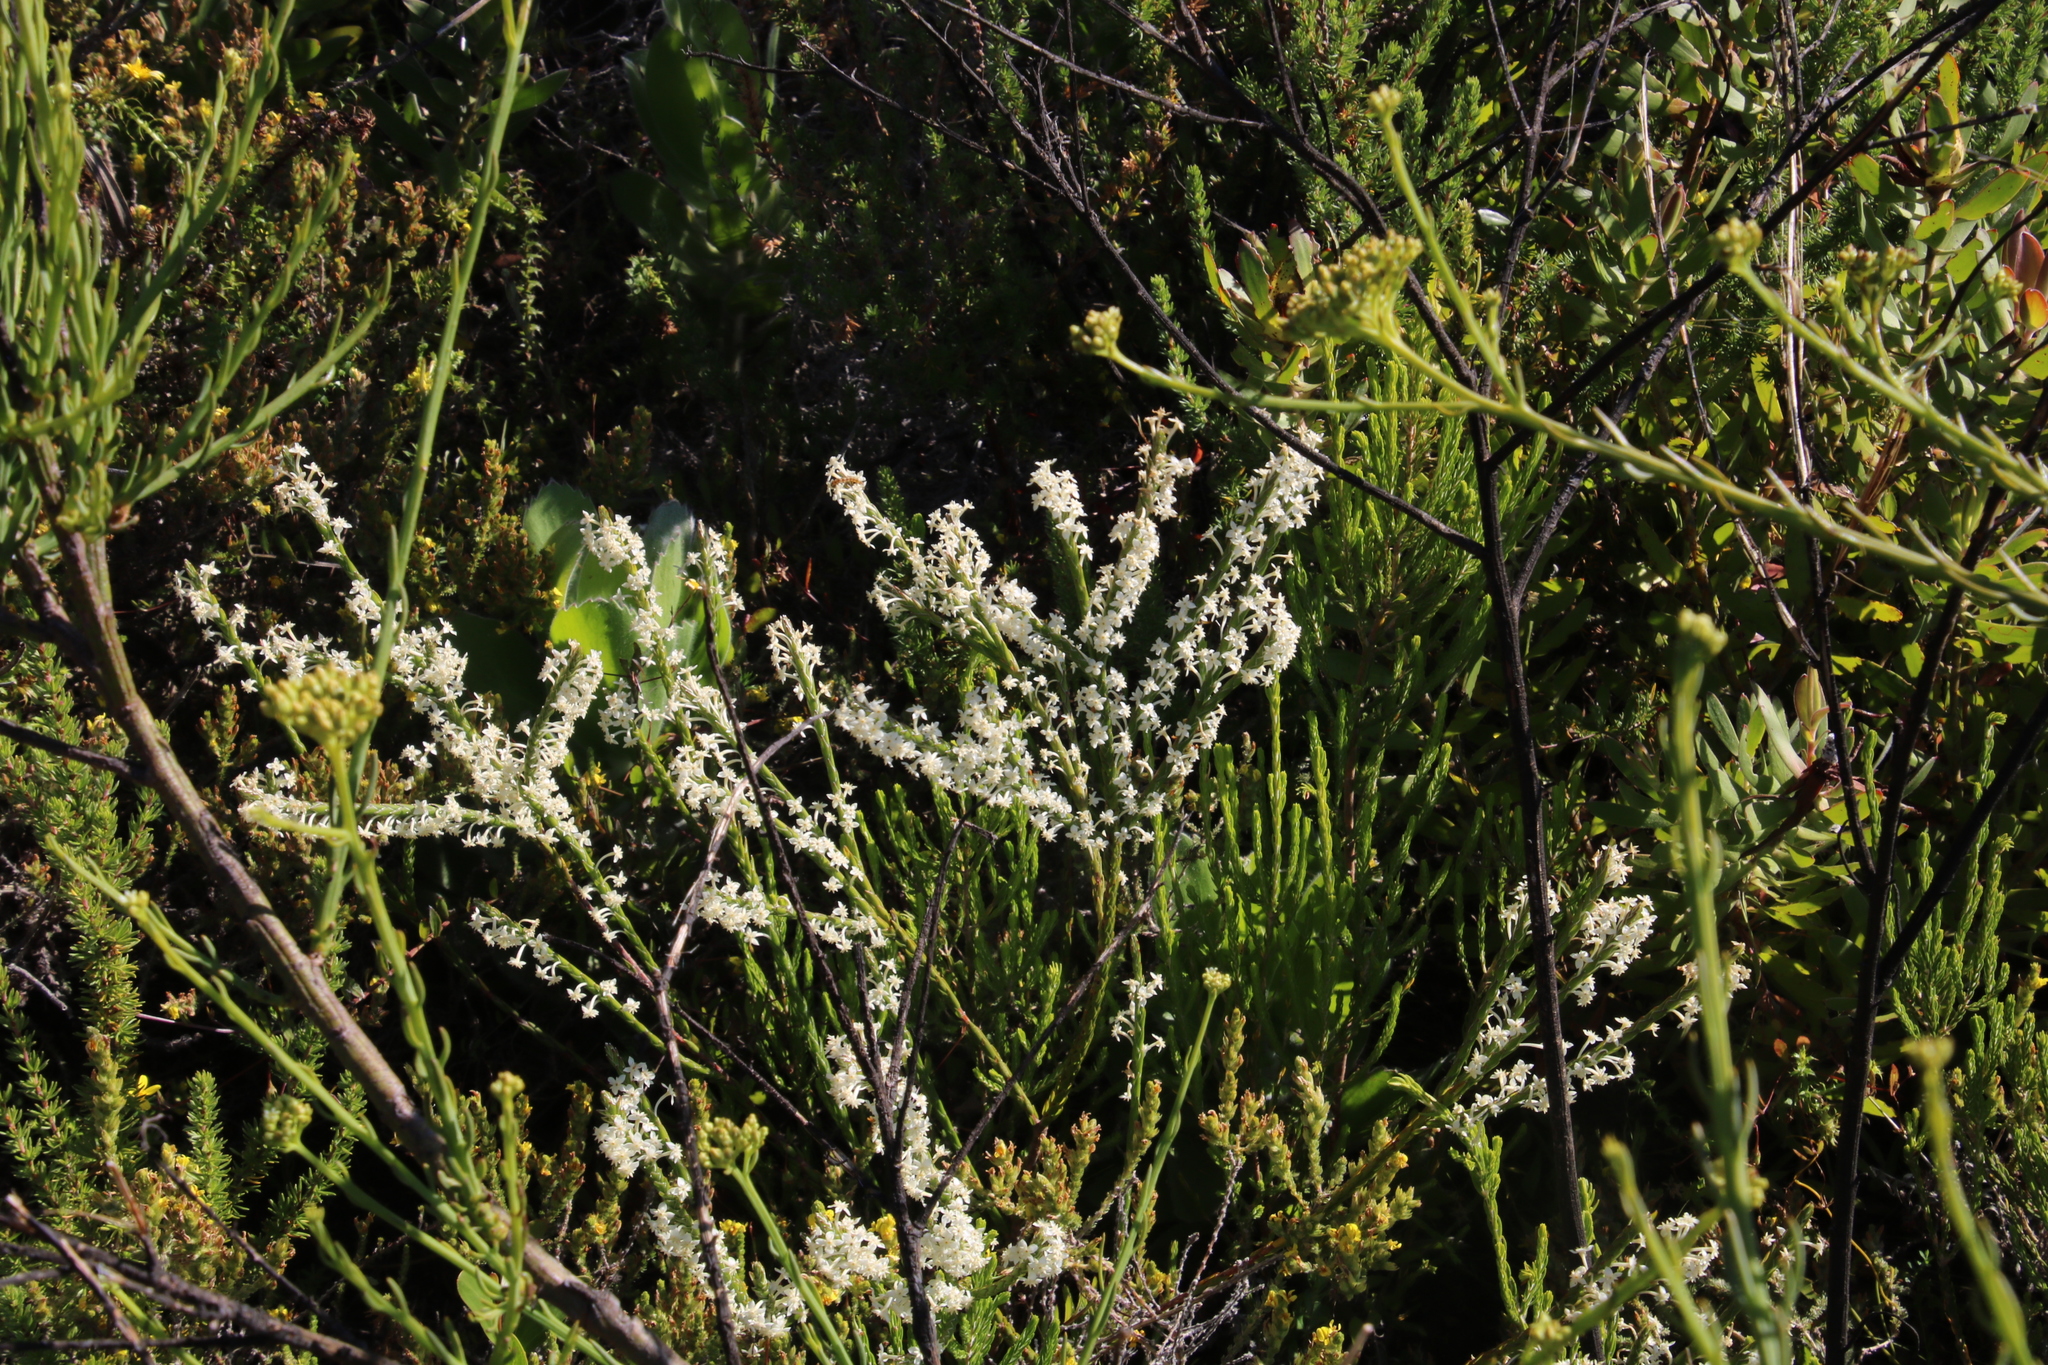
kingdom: Plantae
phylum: Tracheophyta
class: Magnoliopsida
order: Malvales
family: Thymelaeaceae
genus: Struthiola
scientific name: Struthiola dodecandra
